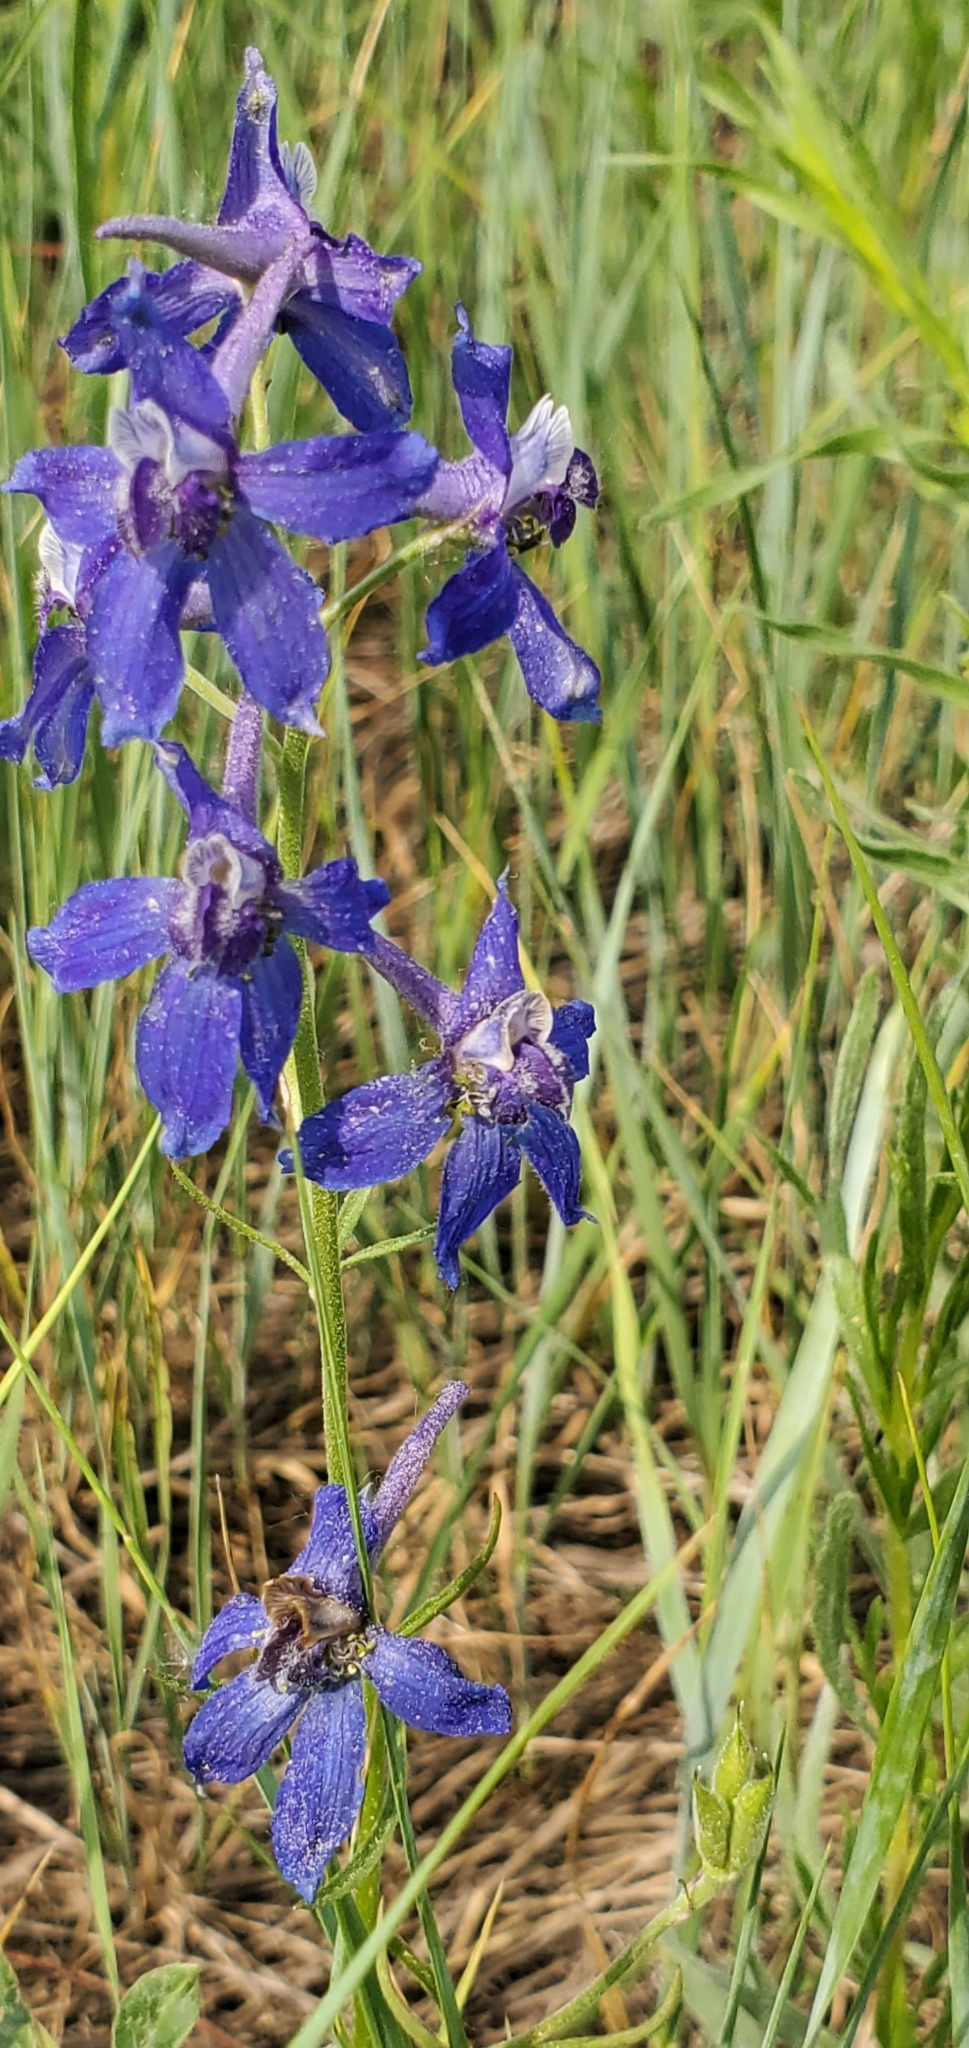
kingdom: Plantae
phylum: Tracheophyta
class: Magnoliopsida
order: Ranunculales
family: Ranunculaceae
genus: Delphinium
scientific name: Delphinium nuttallianum
